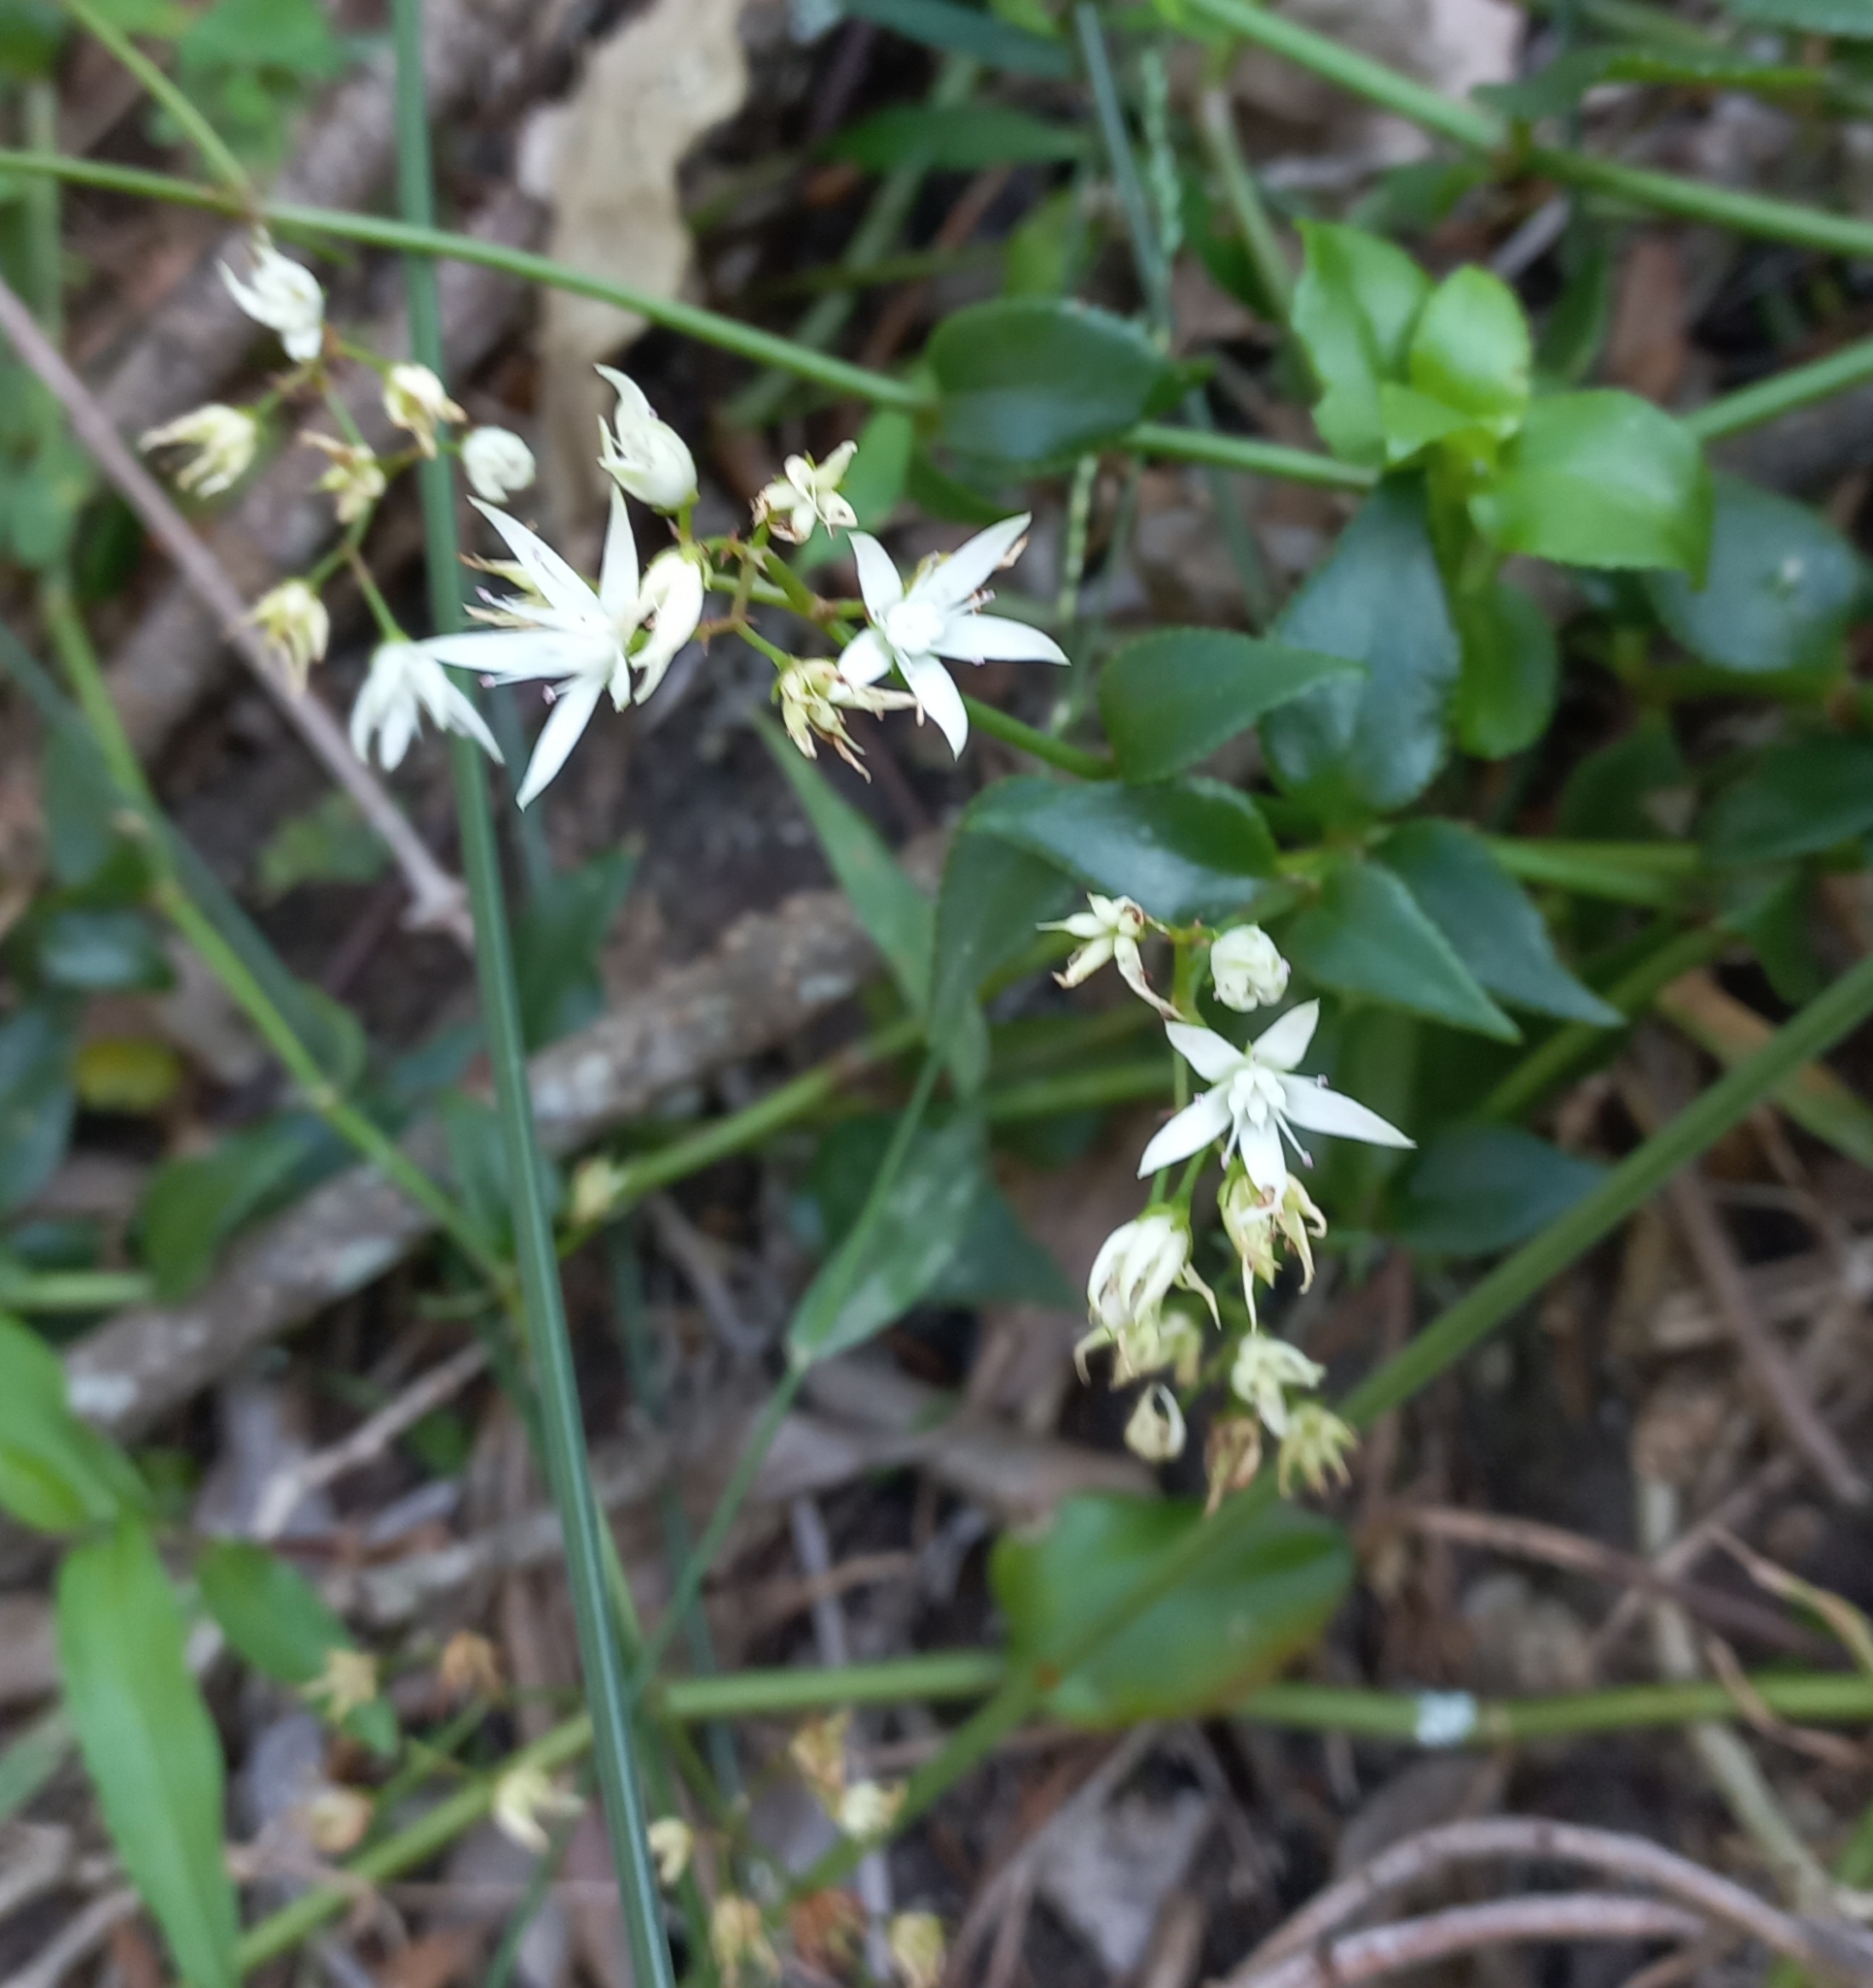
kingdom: Plantae
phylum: Tracheophyta
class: Magnoliopsida
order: Saxifragales
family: Crassulaceae
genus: Crassula
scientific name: Crassula sarmentosa
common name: Jade-tree
